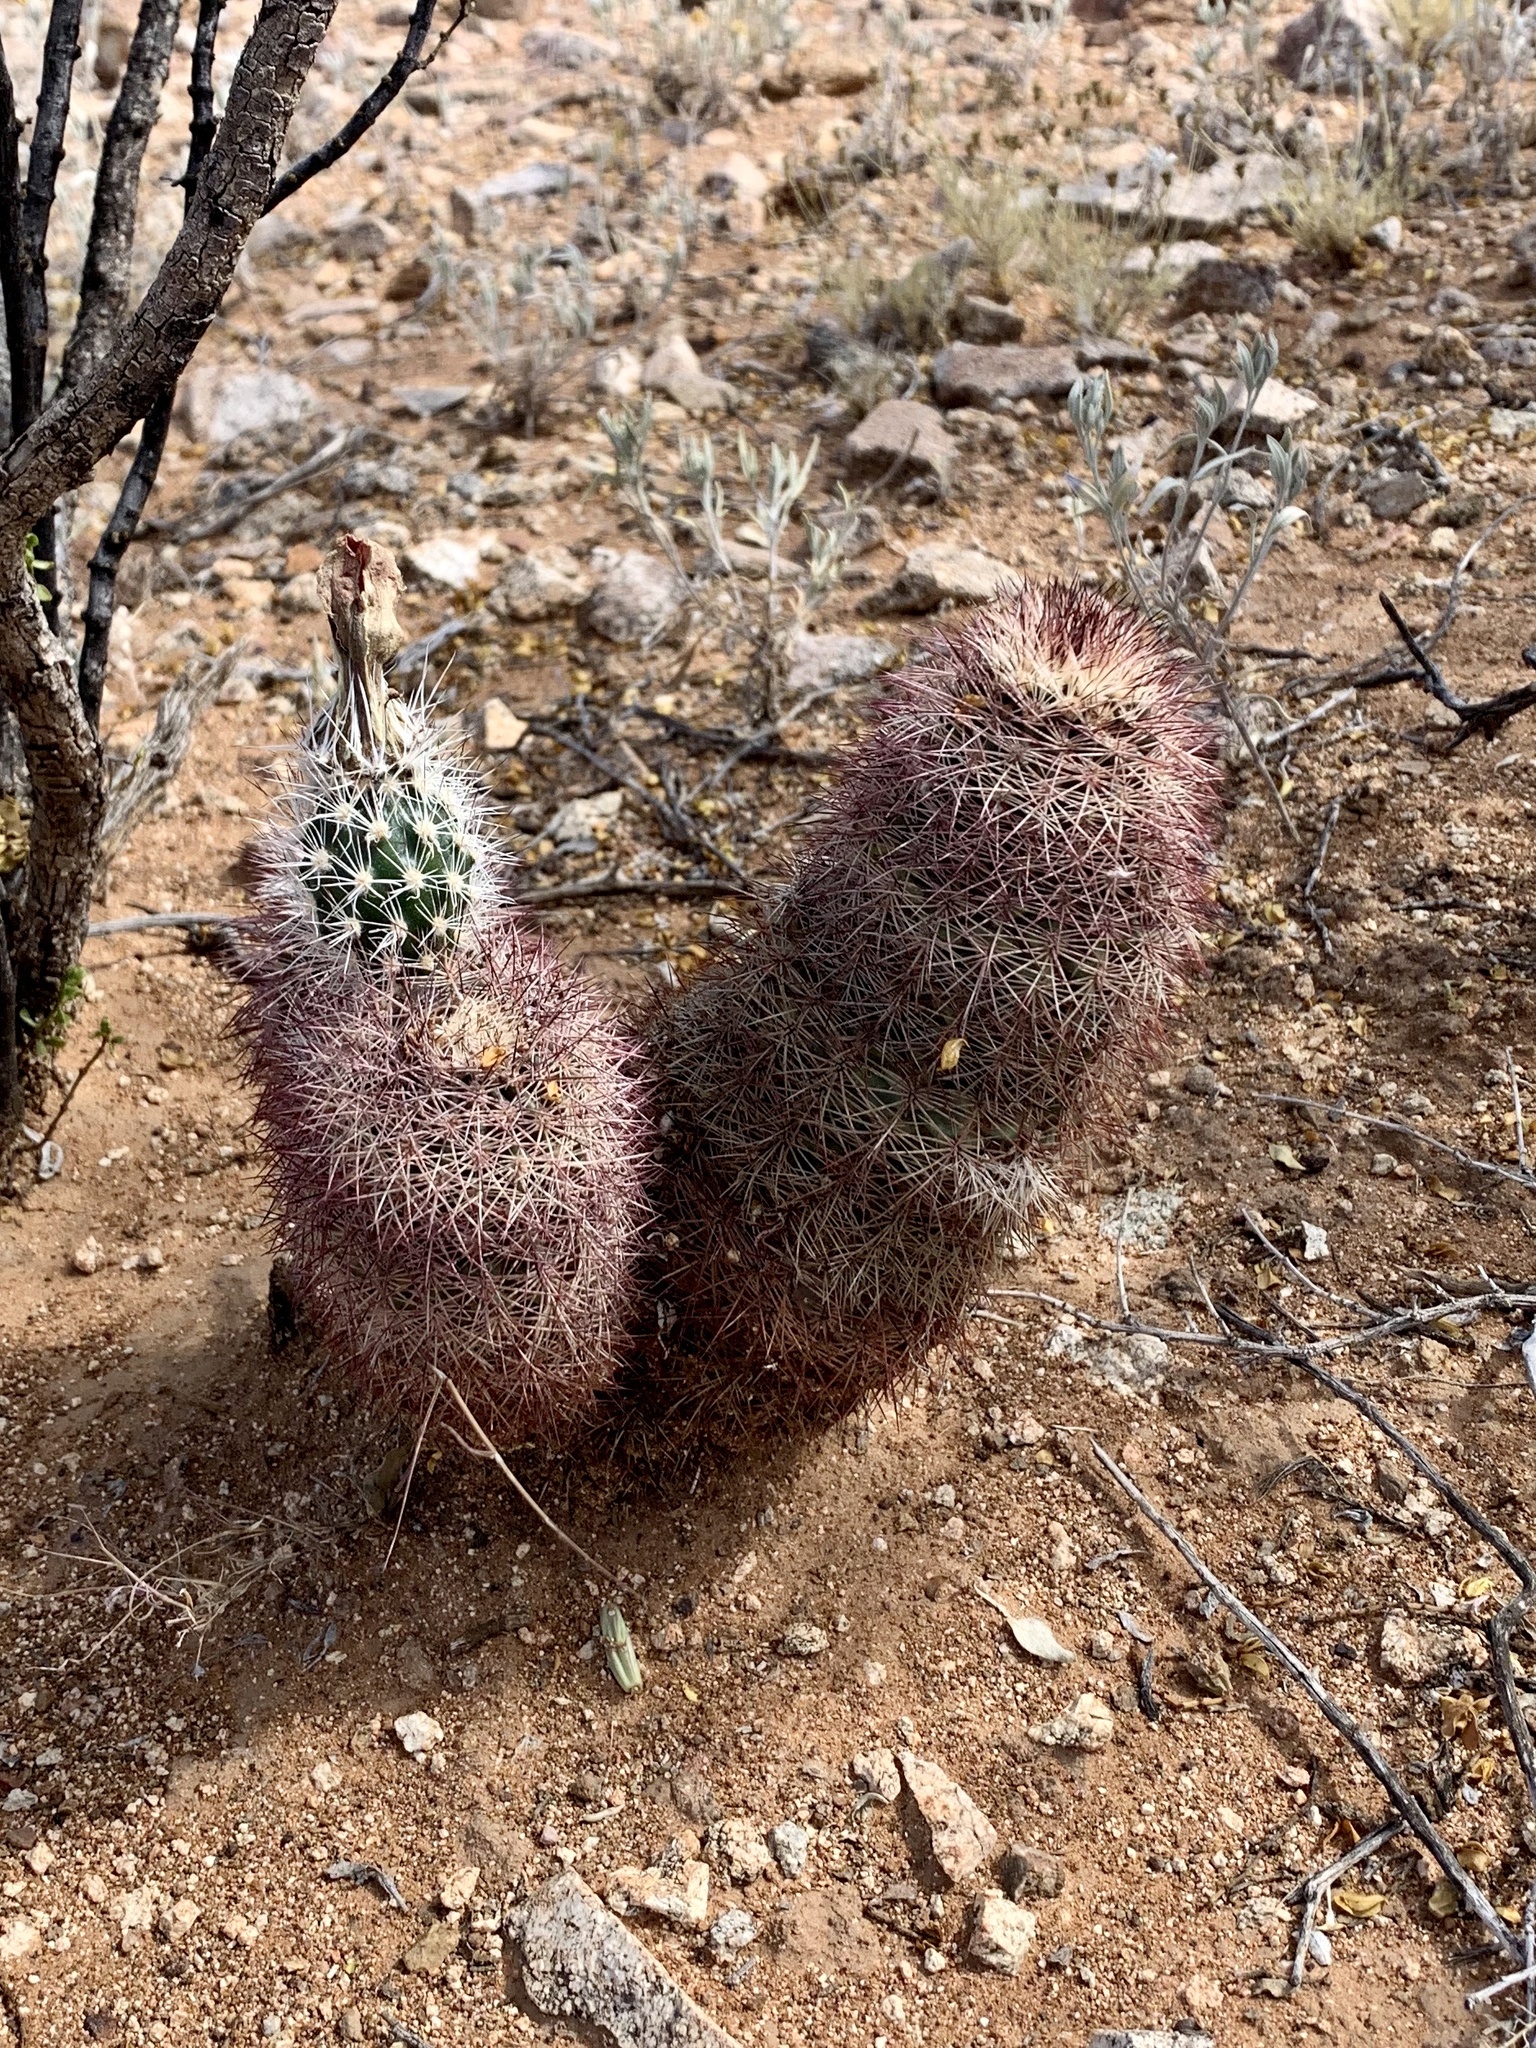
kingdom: Plantae
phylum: Tracheophyta
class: Magnoliopsida
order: Caryophyllales
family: Cactaceae
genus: Echinocereus
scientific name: Echinocereus dasyacanthus
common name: Spiny hedgehog cactus
